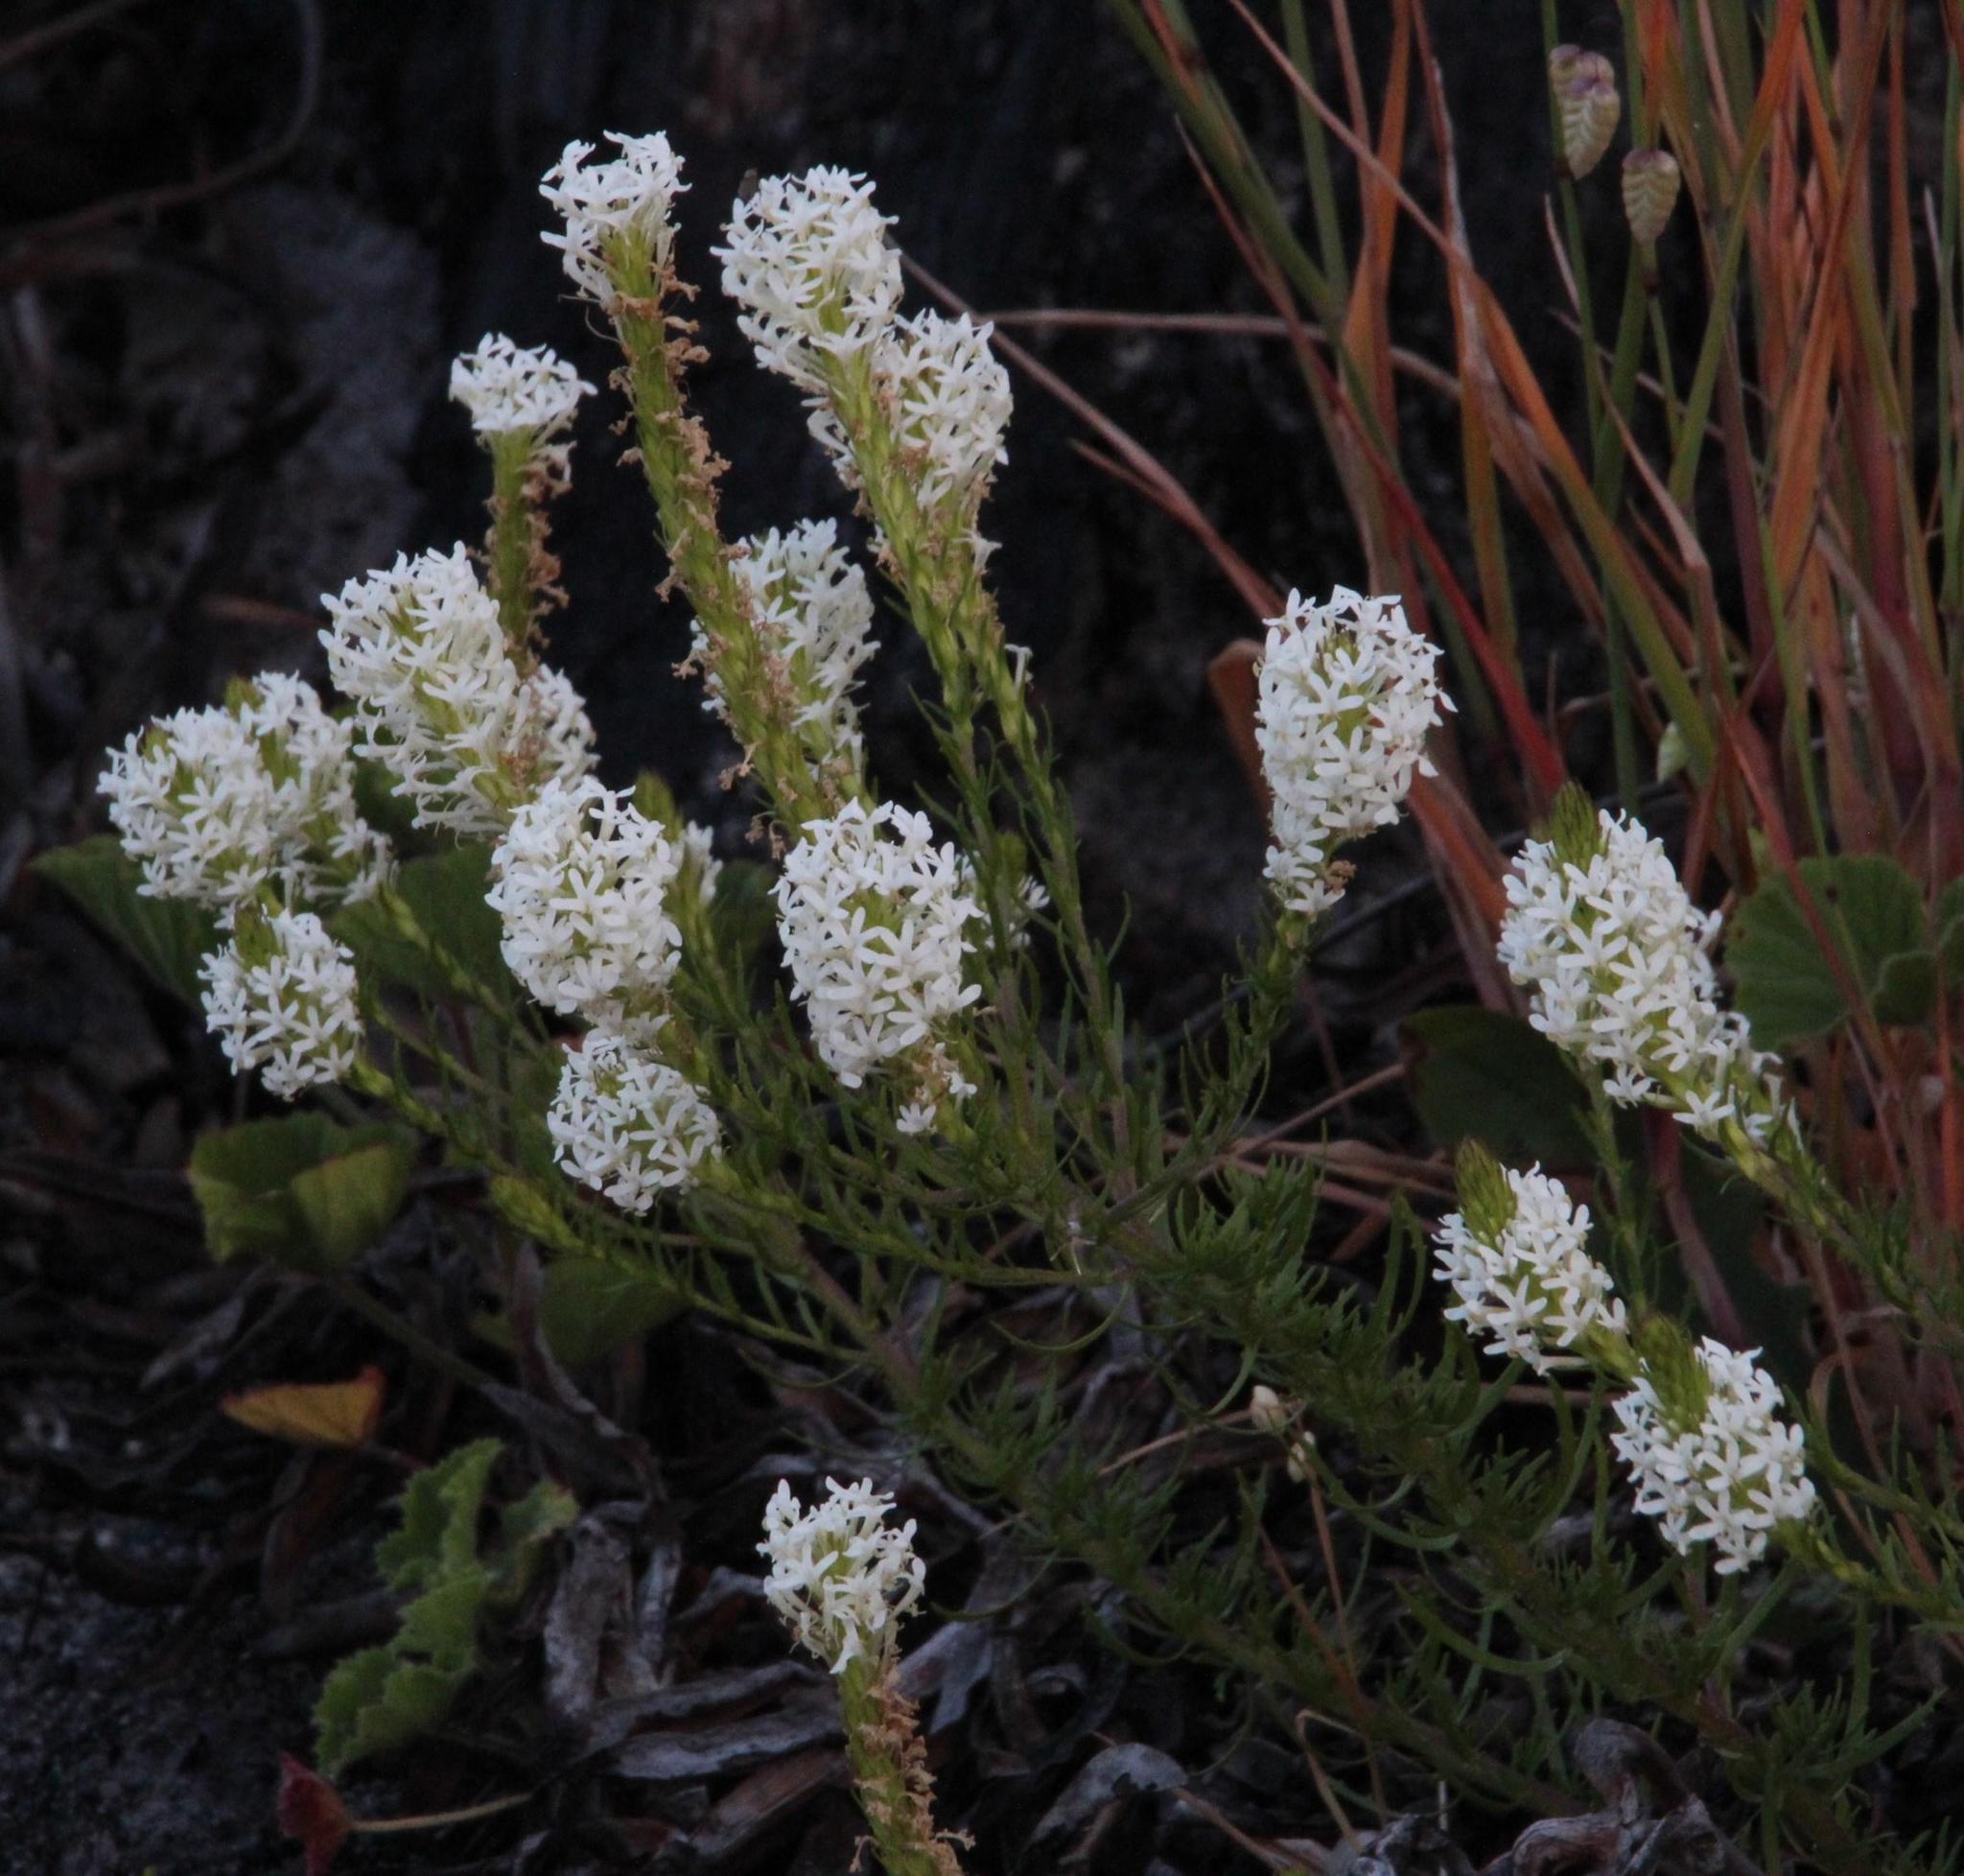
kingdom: Plantae
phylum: Tracheophyta
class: Magnoliopsida
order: Lamiales
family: Scrophulariaceae
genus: Dischisma
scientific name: Dischisma ciliatum
